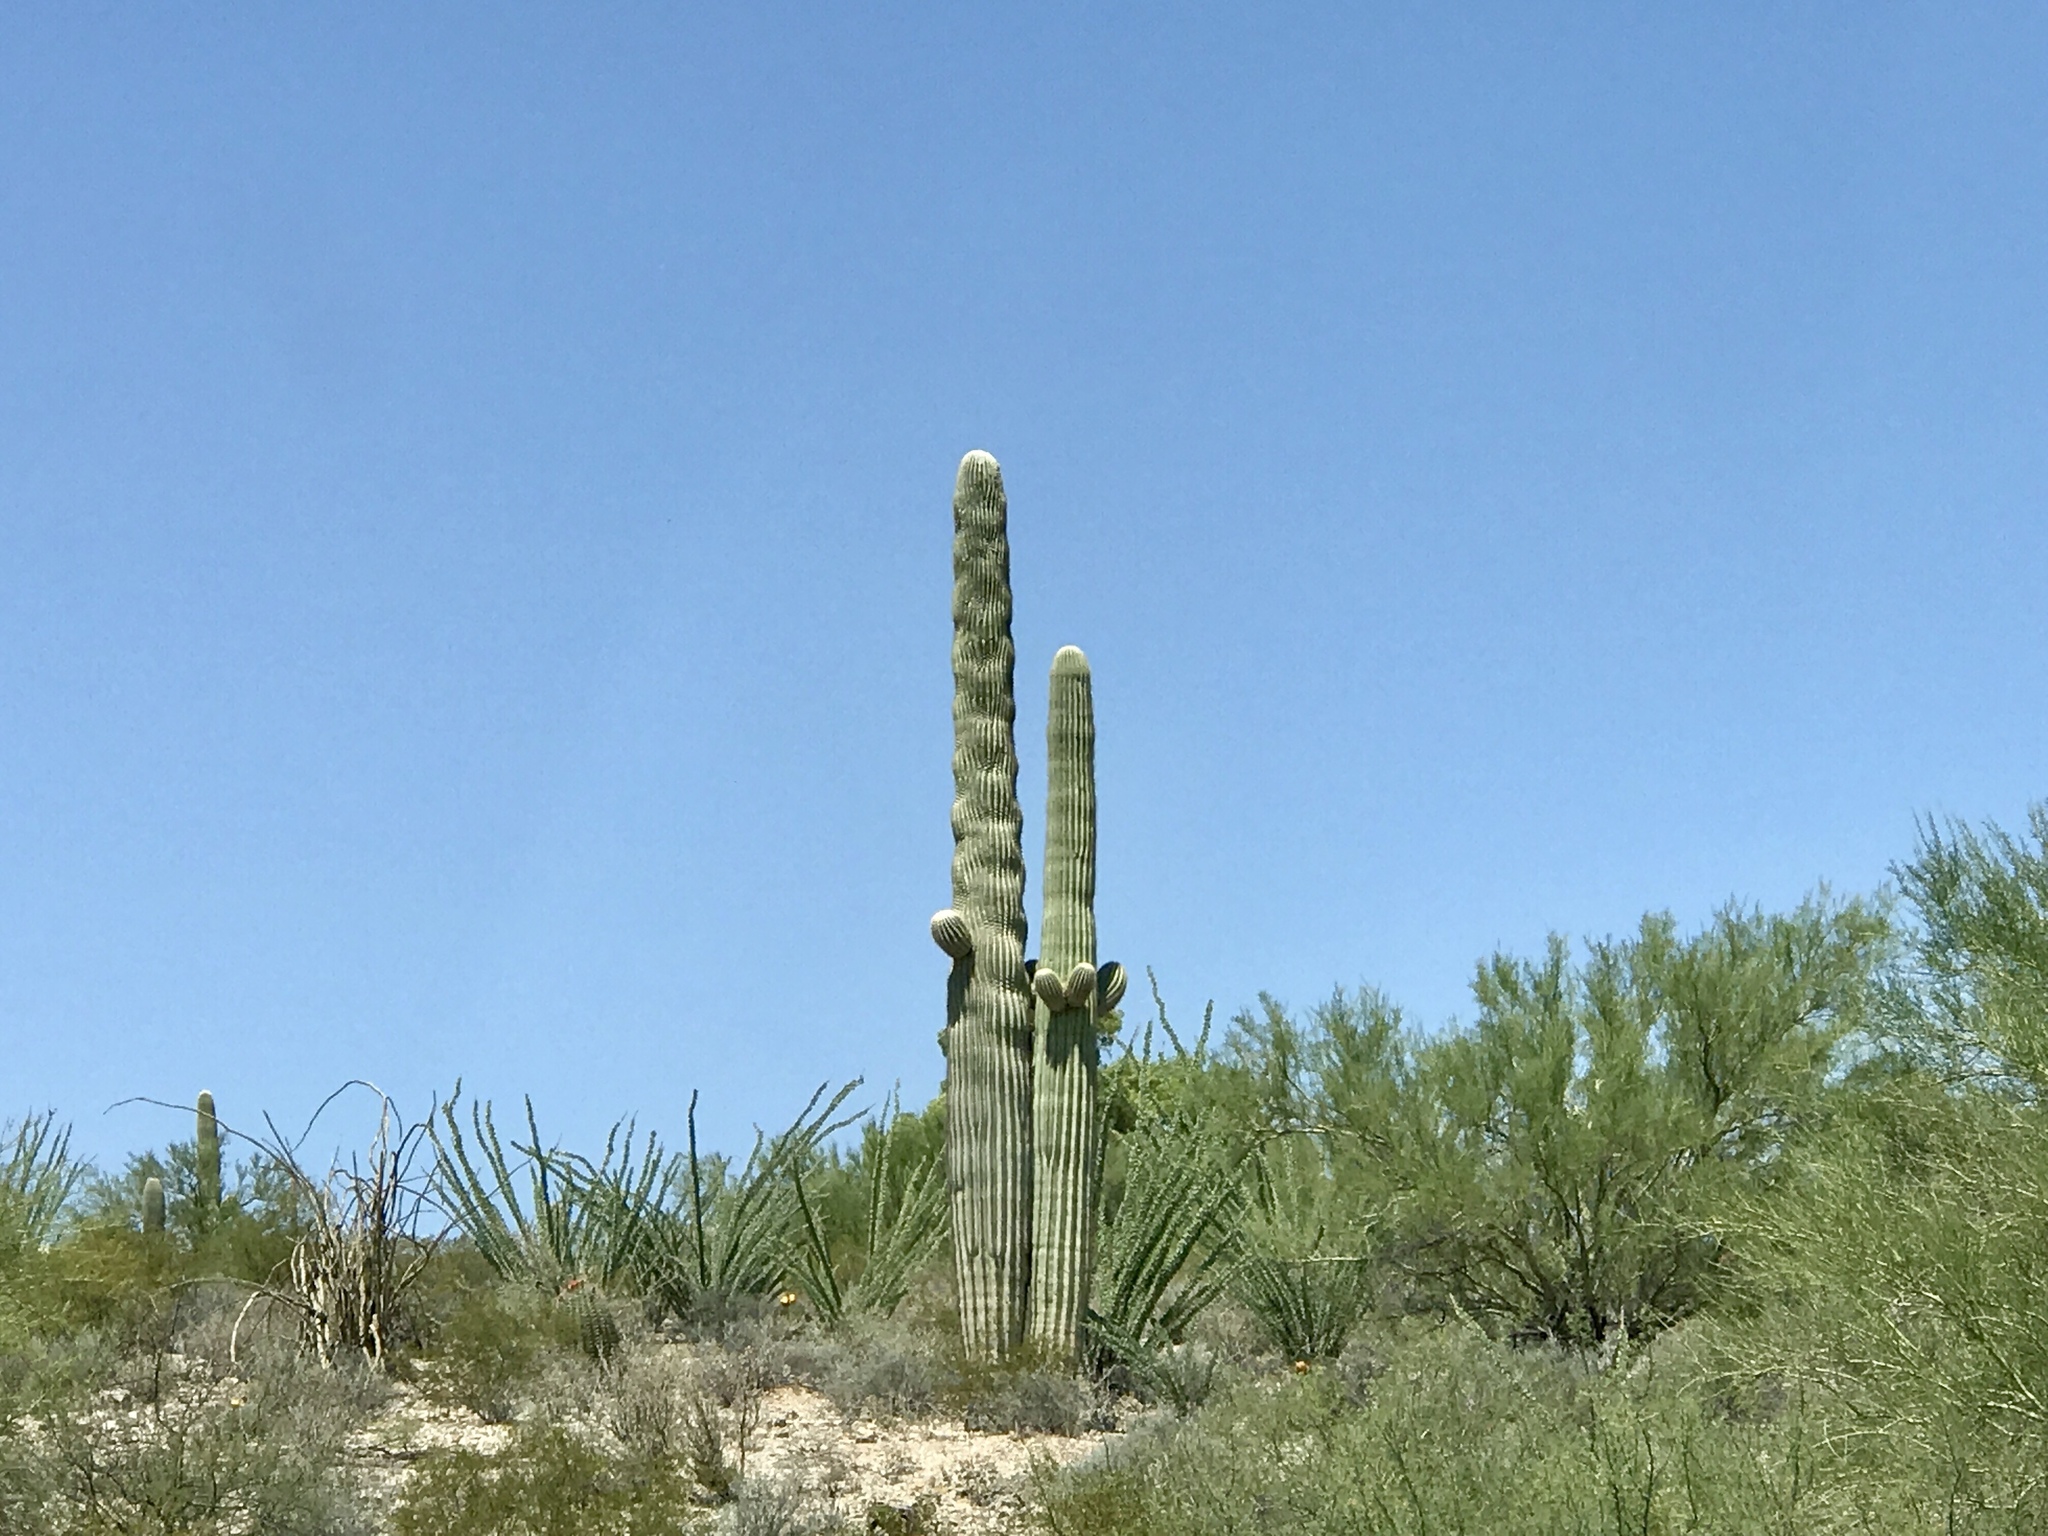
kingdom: Plantae
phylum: Tracheophyta
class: Magnoliopsida
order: Caryophyllales
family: Cactaceae
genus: Carnegiea
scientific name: Carnegiea gigantea
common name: Saguaro
